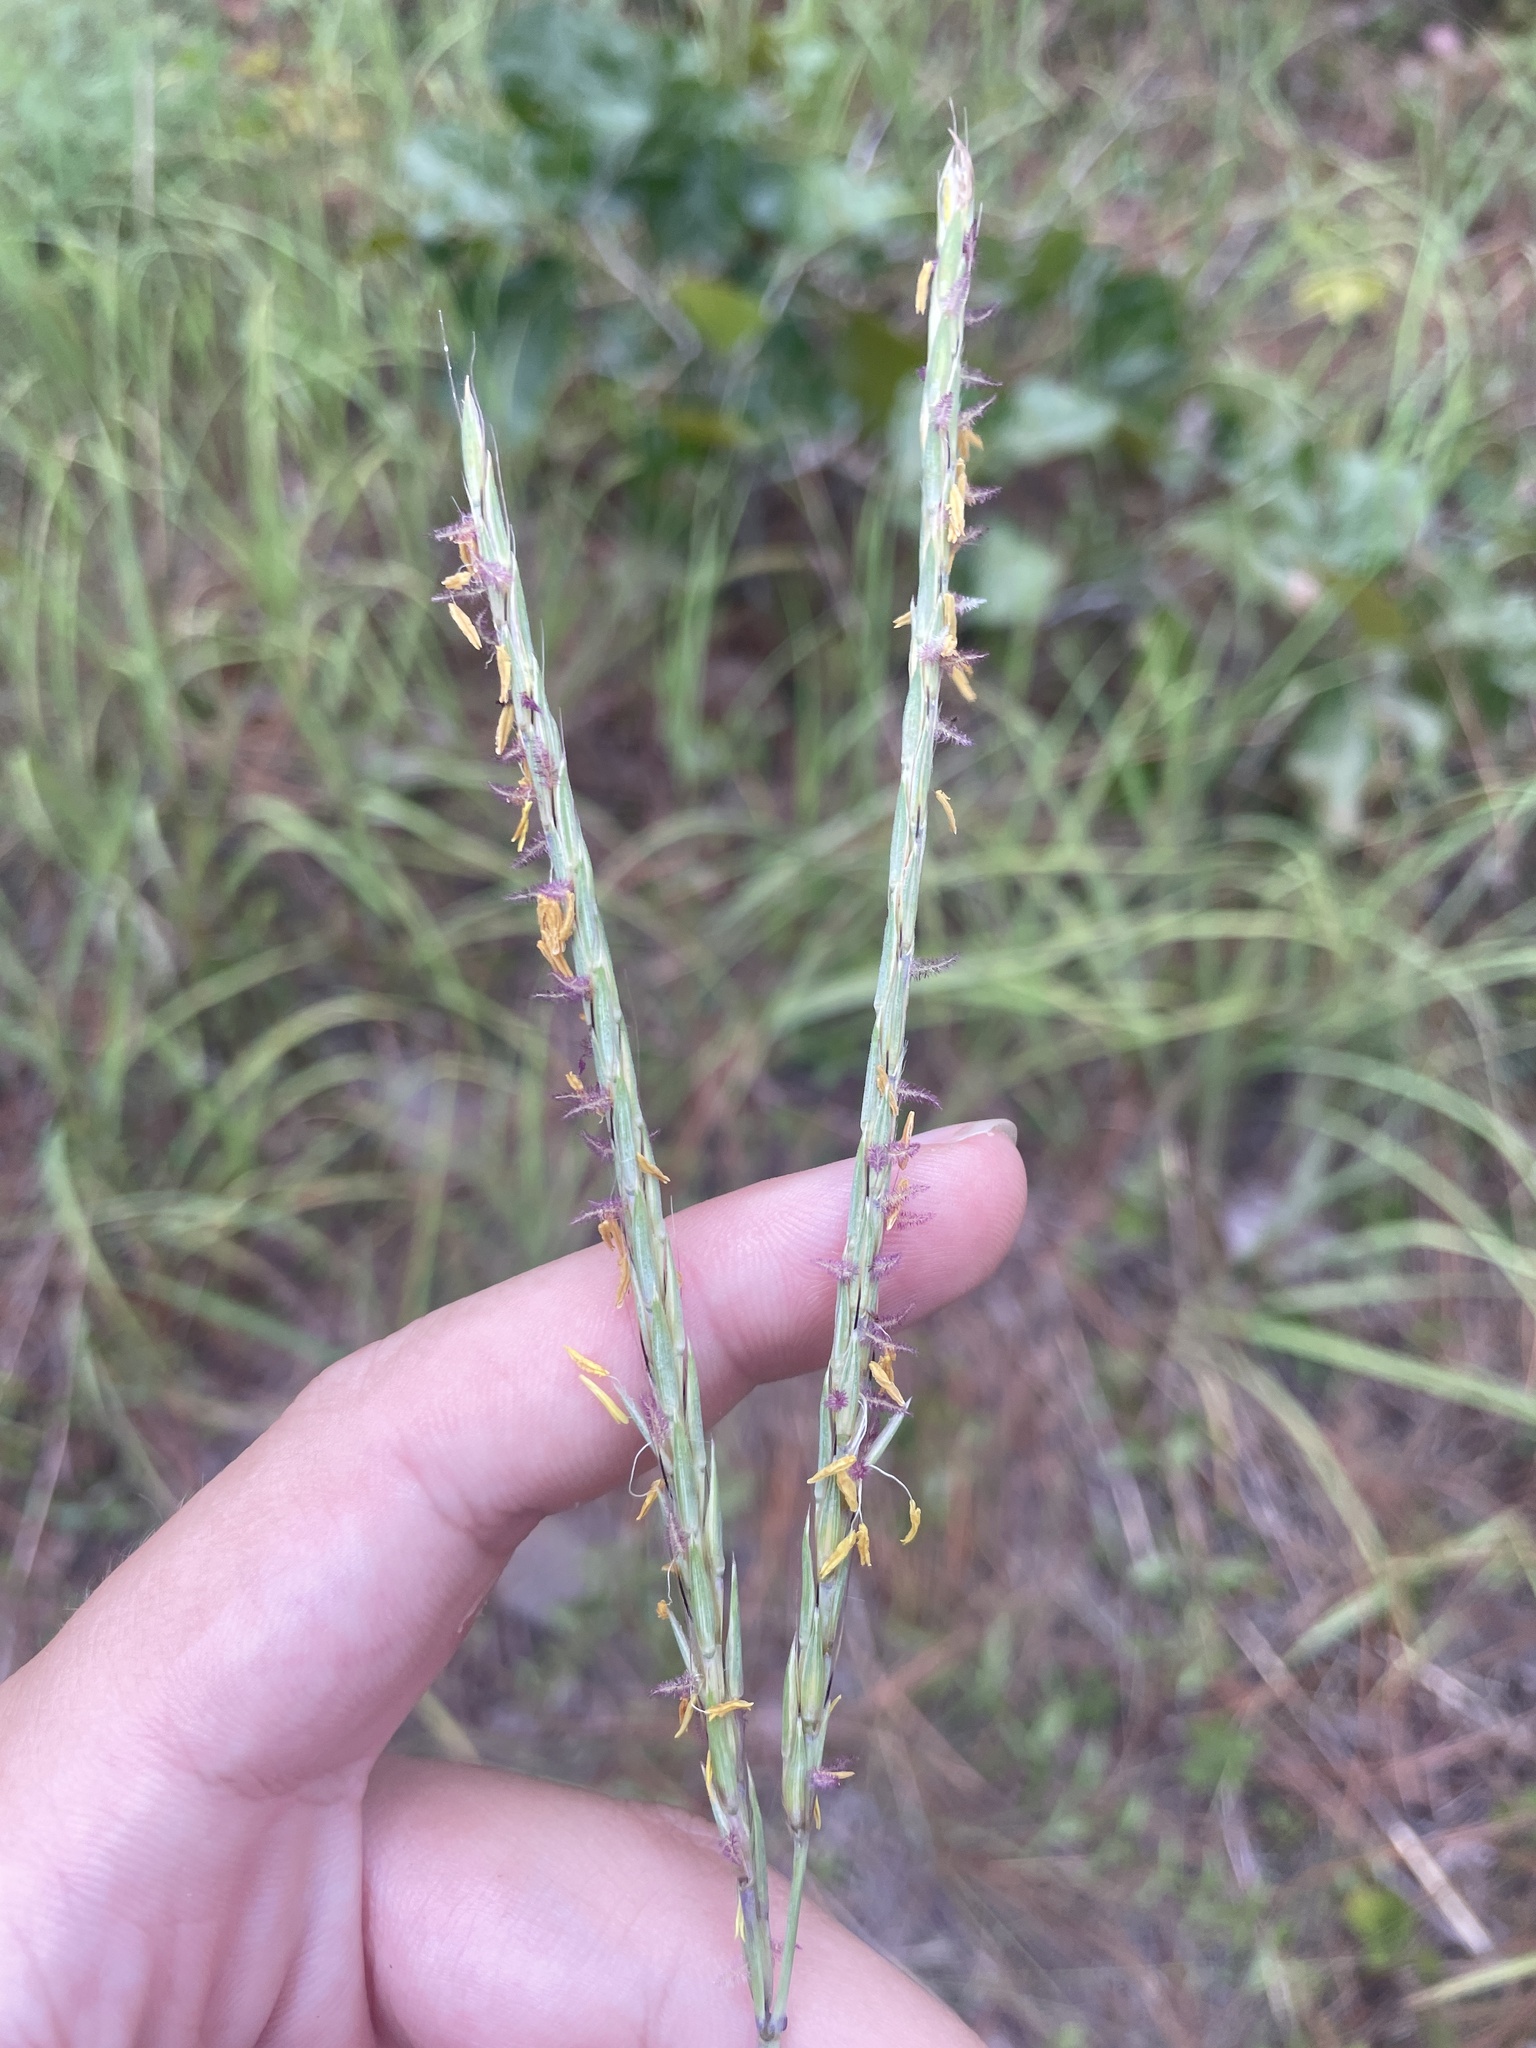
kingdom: Plantae
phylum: Tracheophyta
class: Liliopsida
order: Poales
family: Poaceae
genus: Andropogon
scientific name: Andropogon gerardi
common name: Big bluestem
